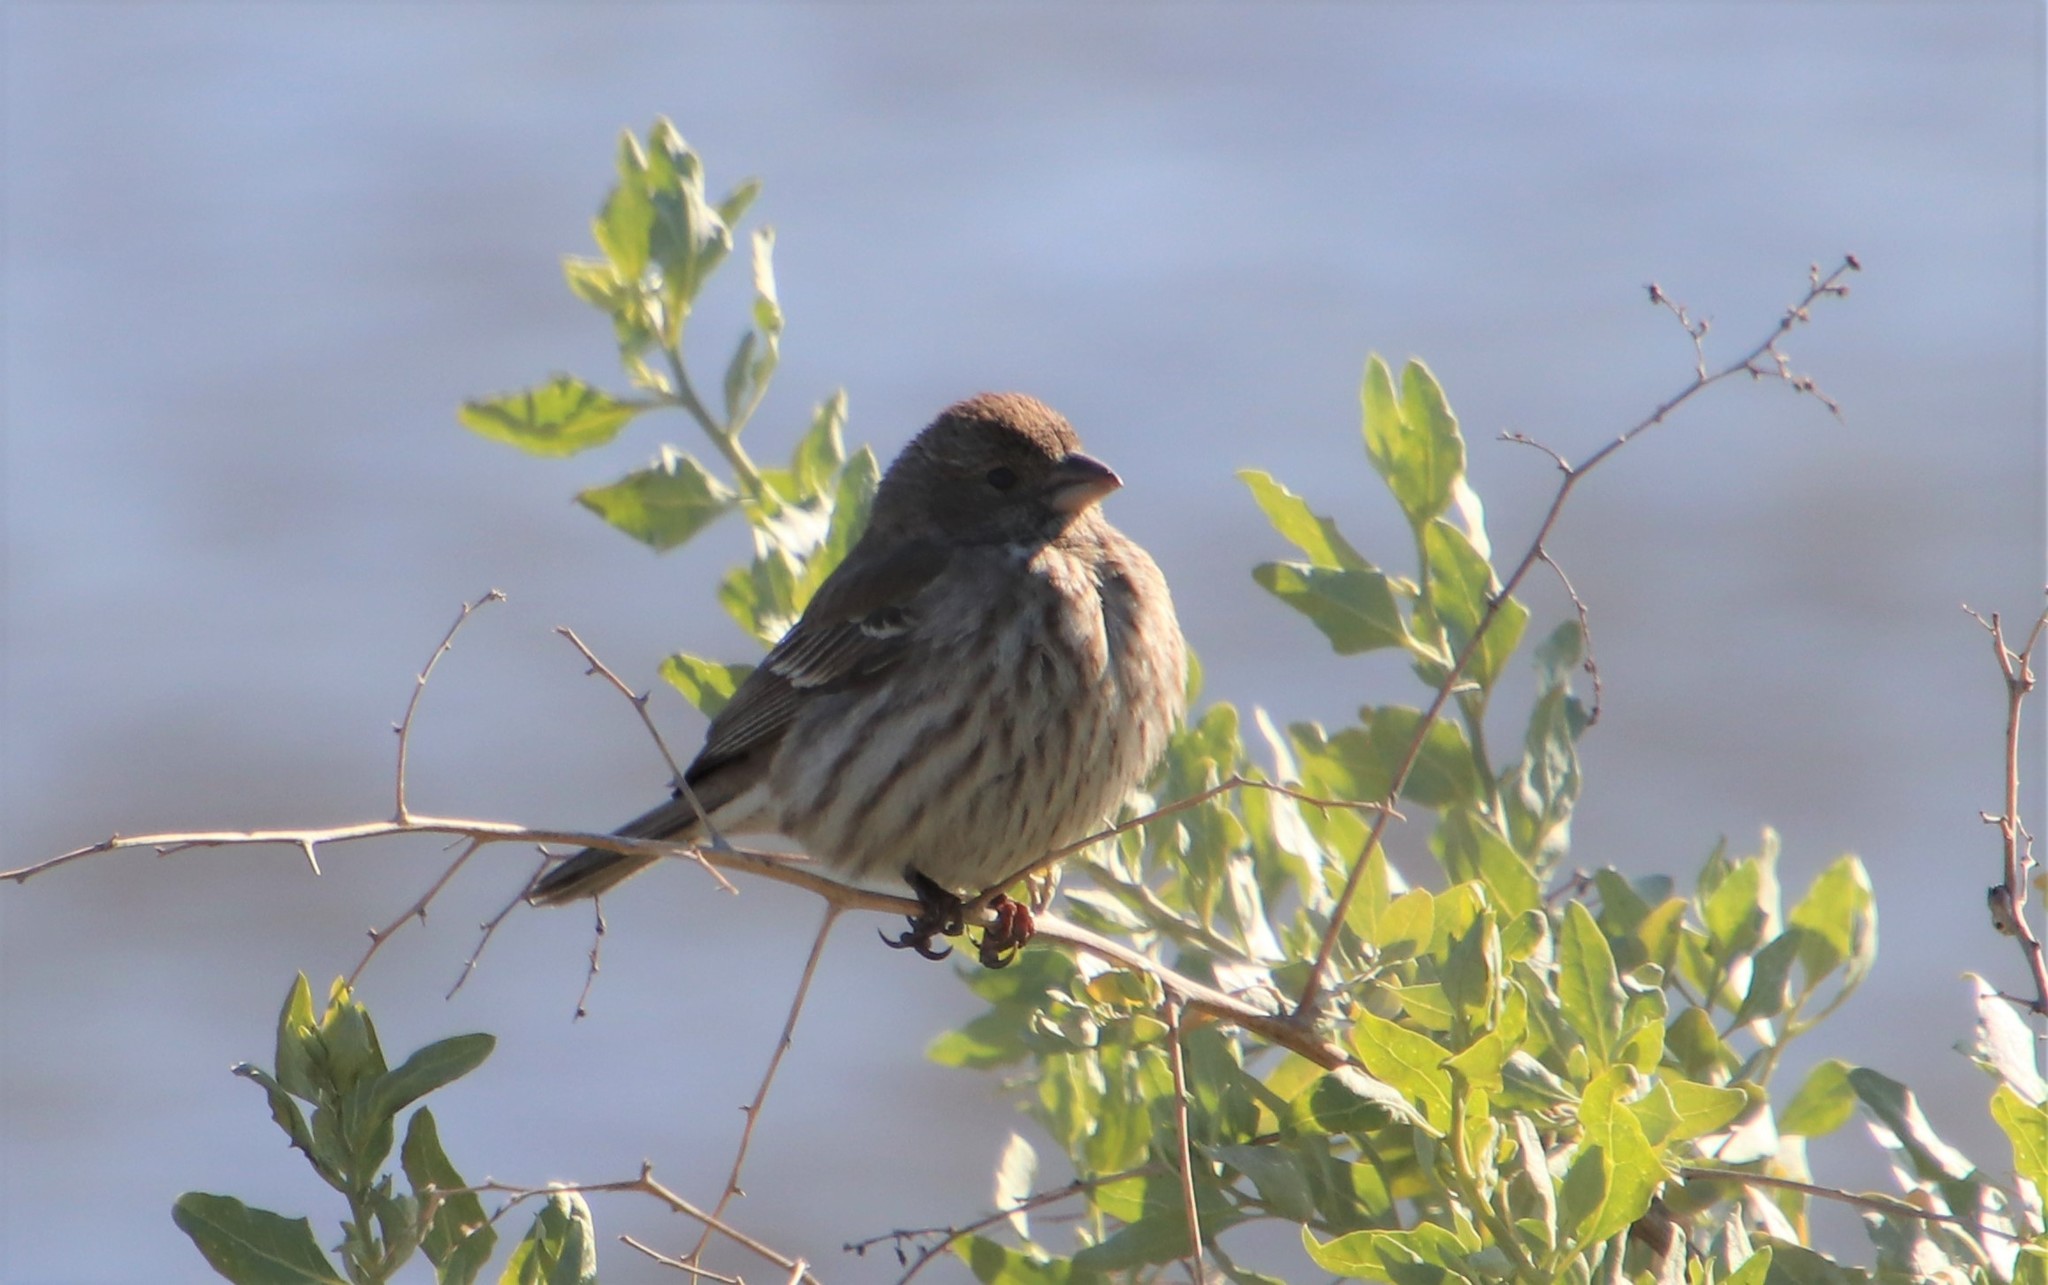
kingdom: Animalia
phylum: Chordata
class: Aves
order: Passeriformes
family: Fringillidae
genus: Haemorhous
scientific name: Haemorhous mexicanus
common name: House finch
